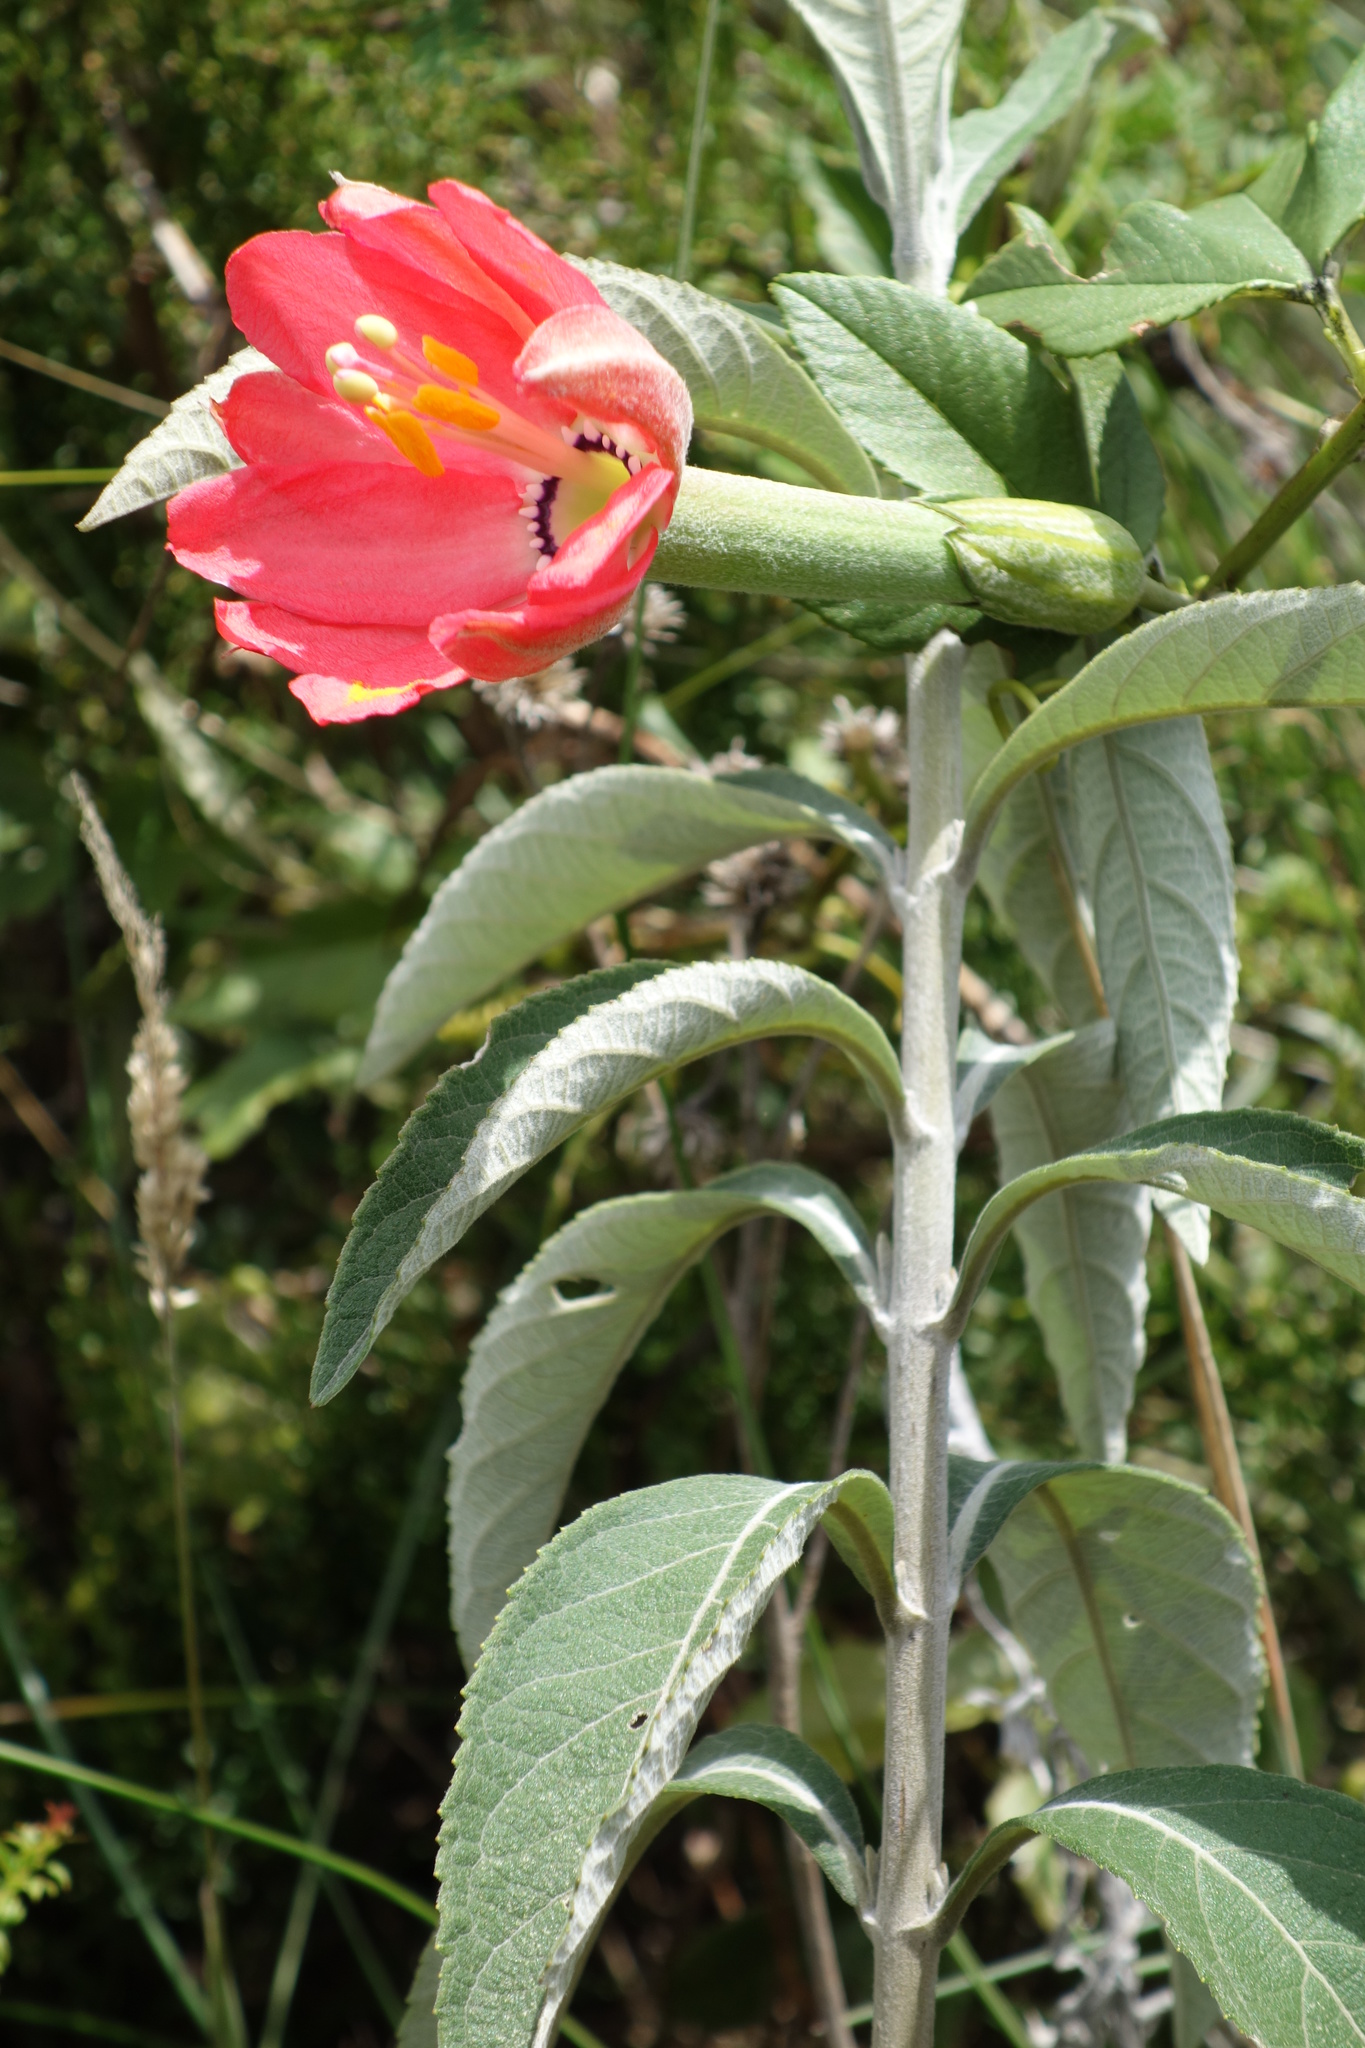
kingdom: Plantae
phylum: Tracheophyta
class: Magnoliopsida
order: Malpighiales
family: Passifloraceae
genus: Passiflora
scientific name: Passiflora mixta
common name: Passion flower
